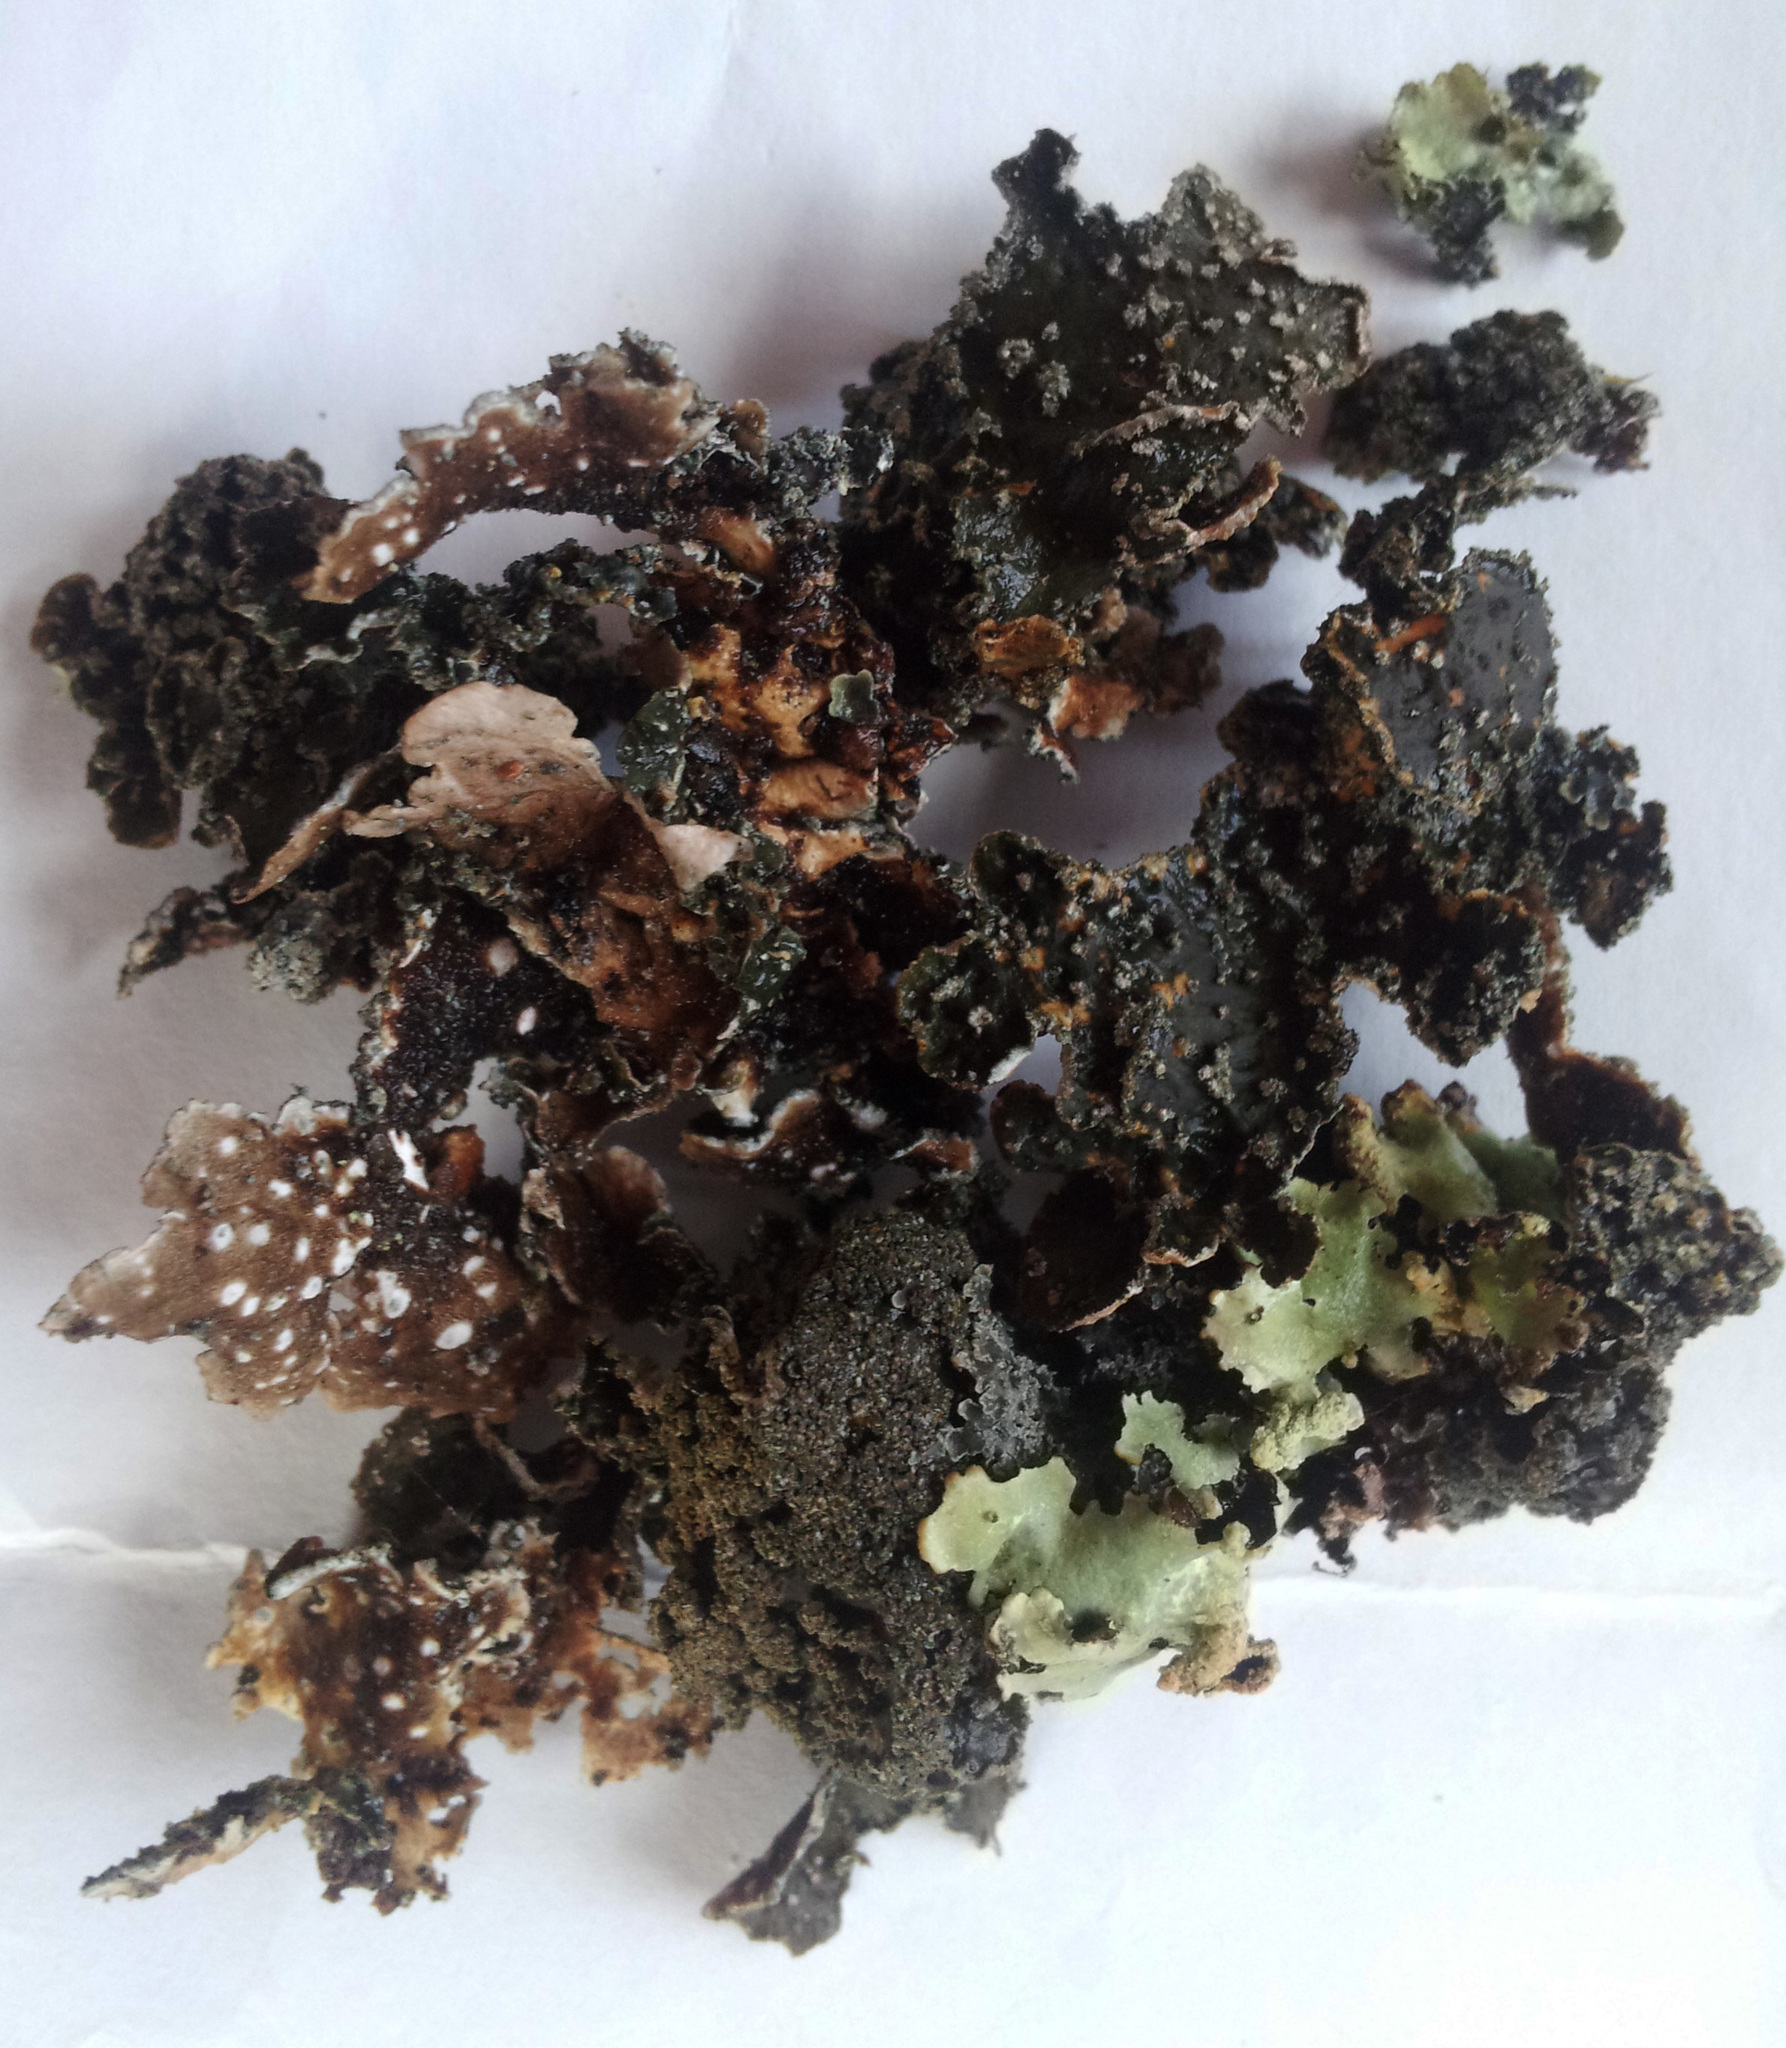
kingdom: Fungi
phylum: Ascomycota
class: Lecanoromycetes
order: Peltigerales
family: Lobariaceae
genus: Pseudocyphellaria
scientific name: Pseudocyphellaria haywardiorum
